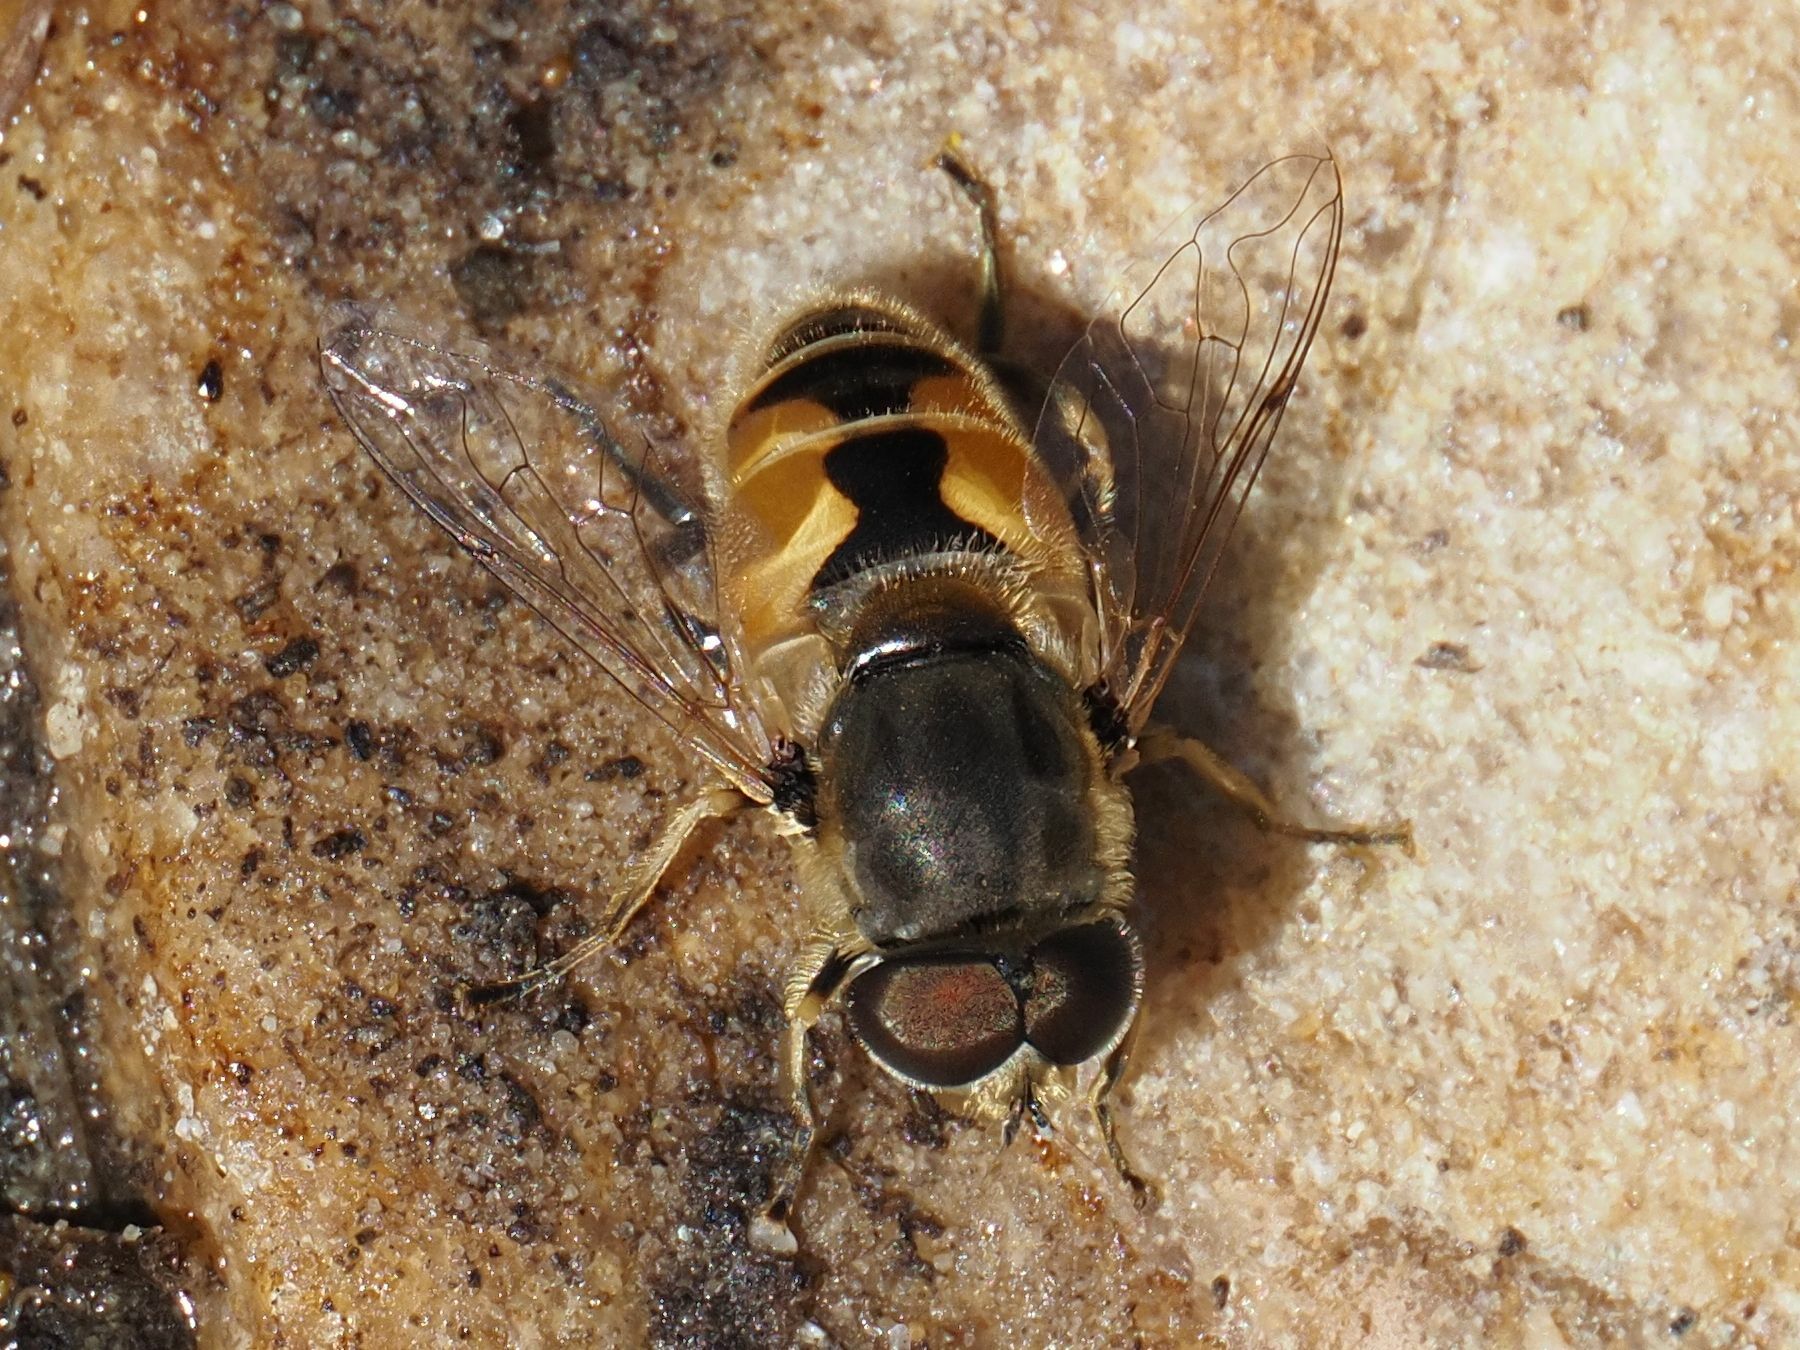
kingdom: Animalia
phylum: Arthropoda
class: Insecta
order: Diptera
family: Syrphidae
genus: Eristalis
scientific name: Eristalis arbustorum
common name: Hover fly
